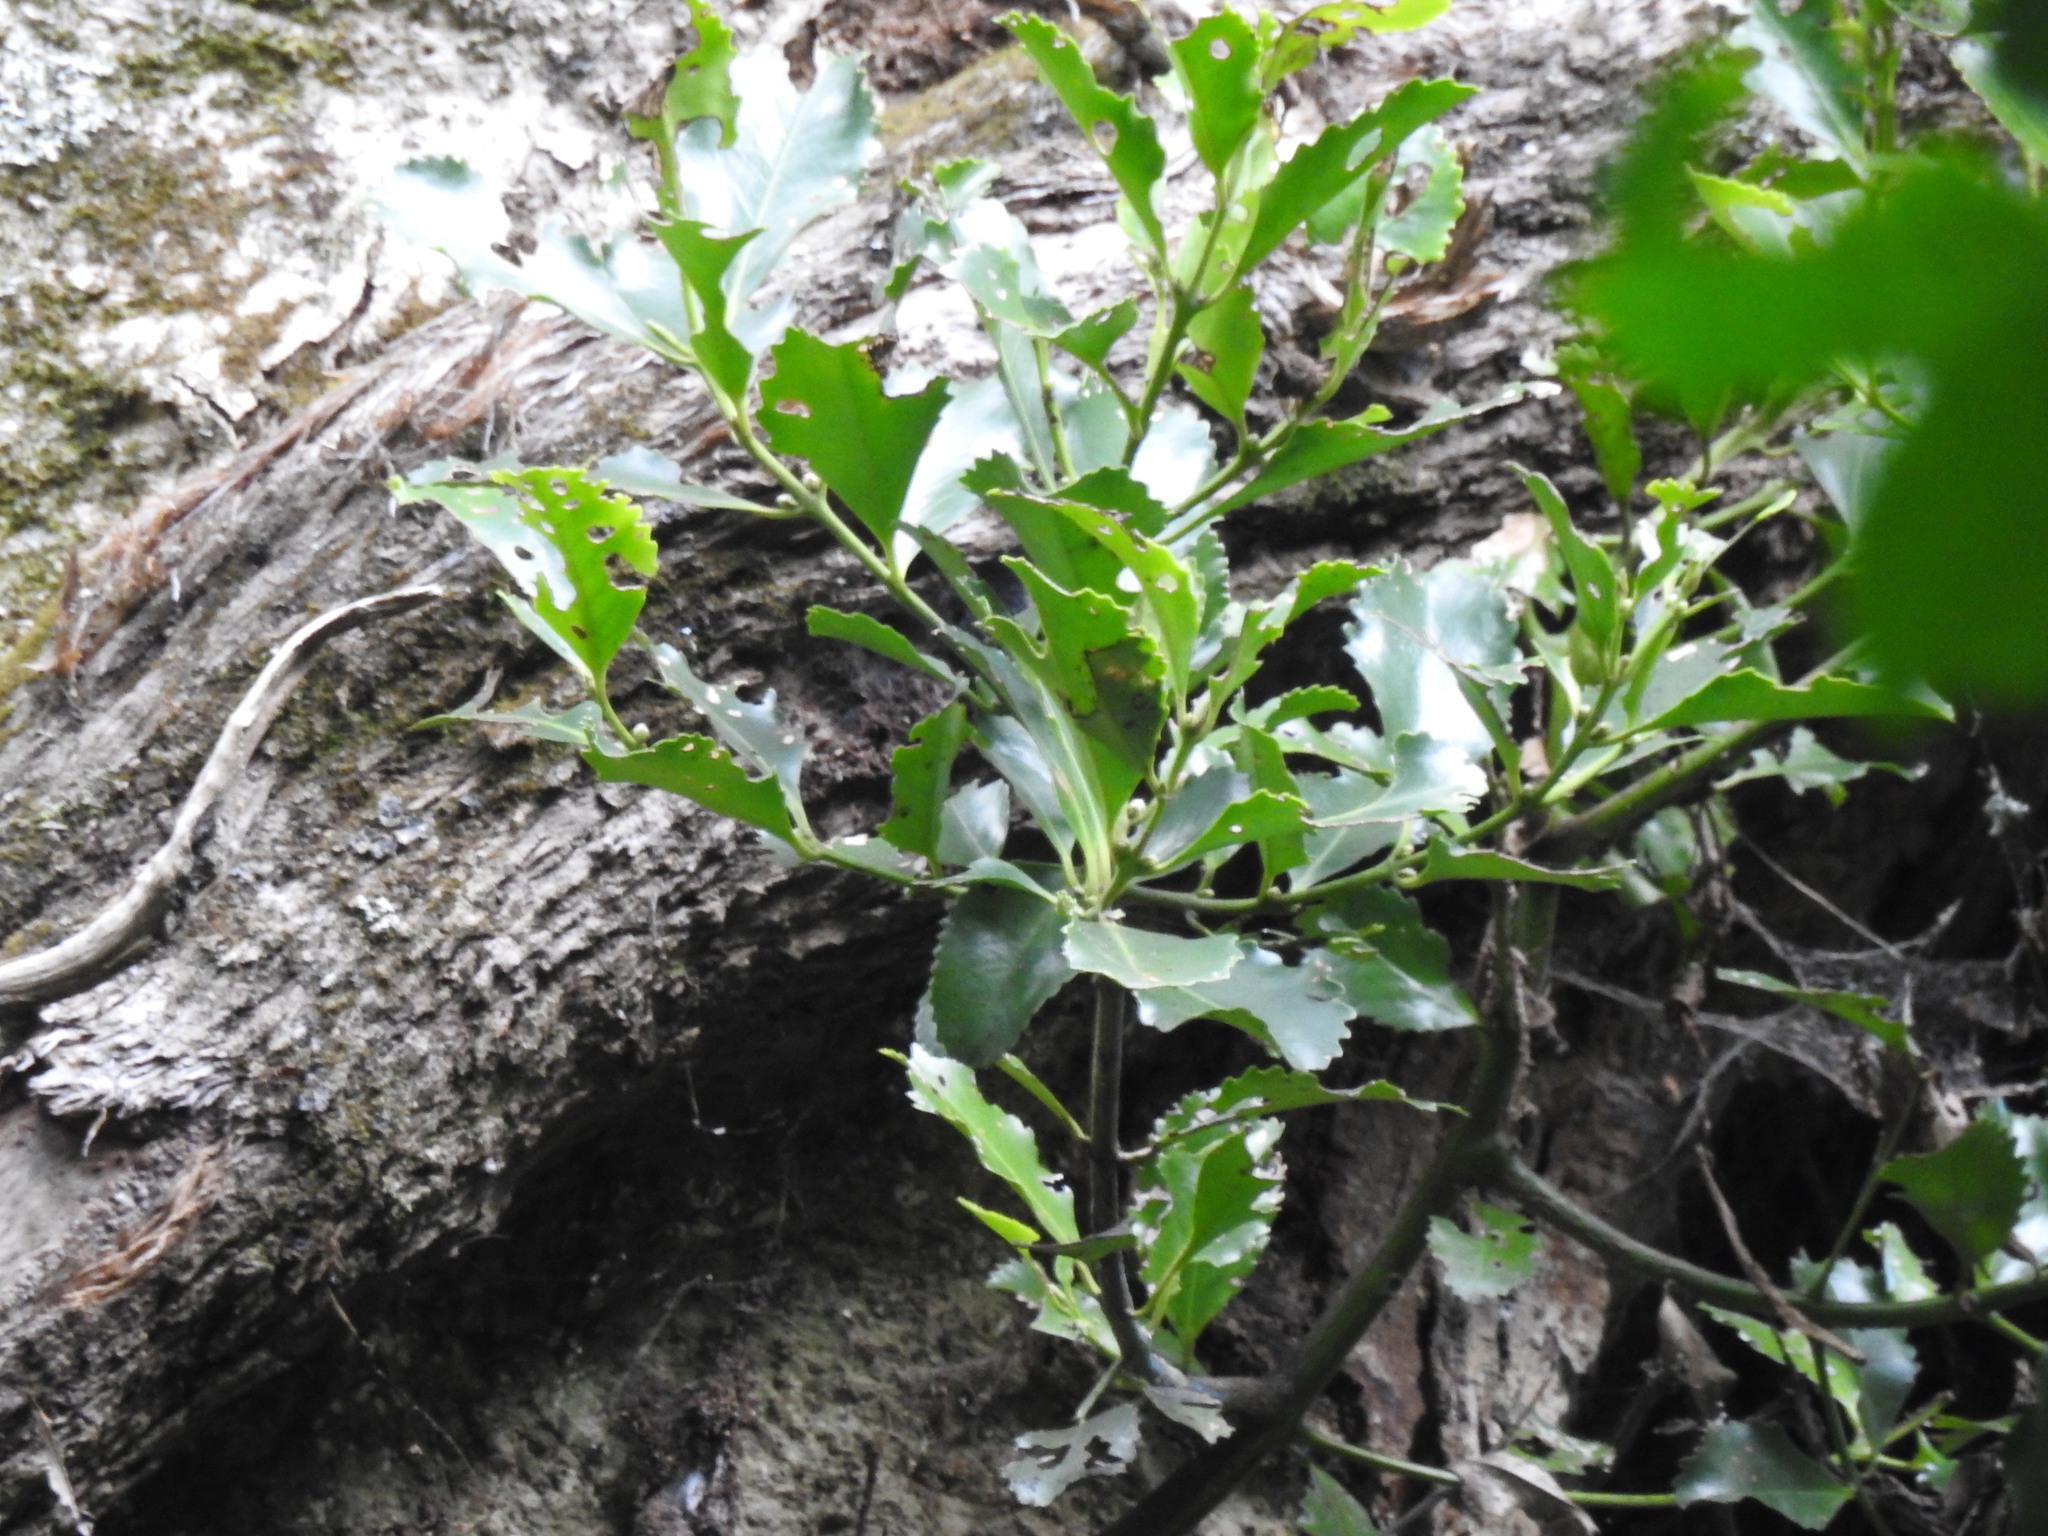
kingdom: Plantae
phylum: Tracheophyta
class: Magnoliopsida
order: Laurales
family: Atherospermataceae
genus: Laurelia
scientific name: Laurelia novae-zelandiae
